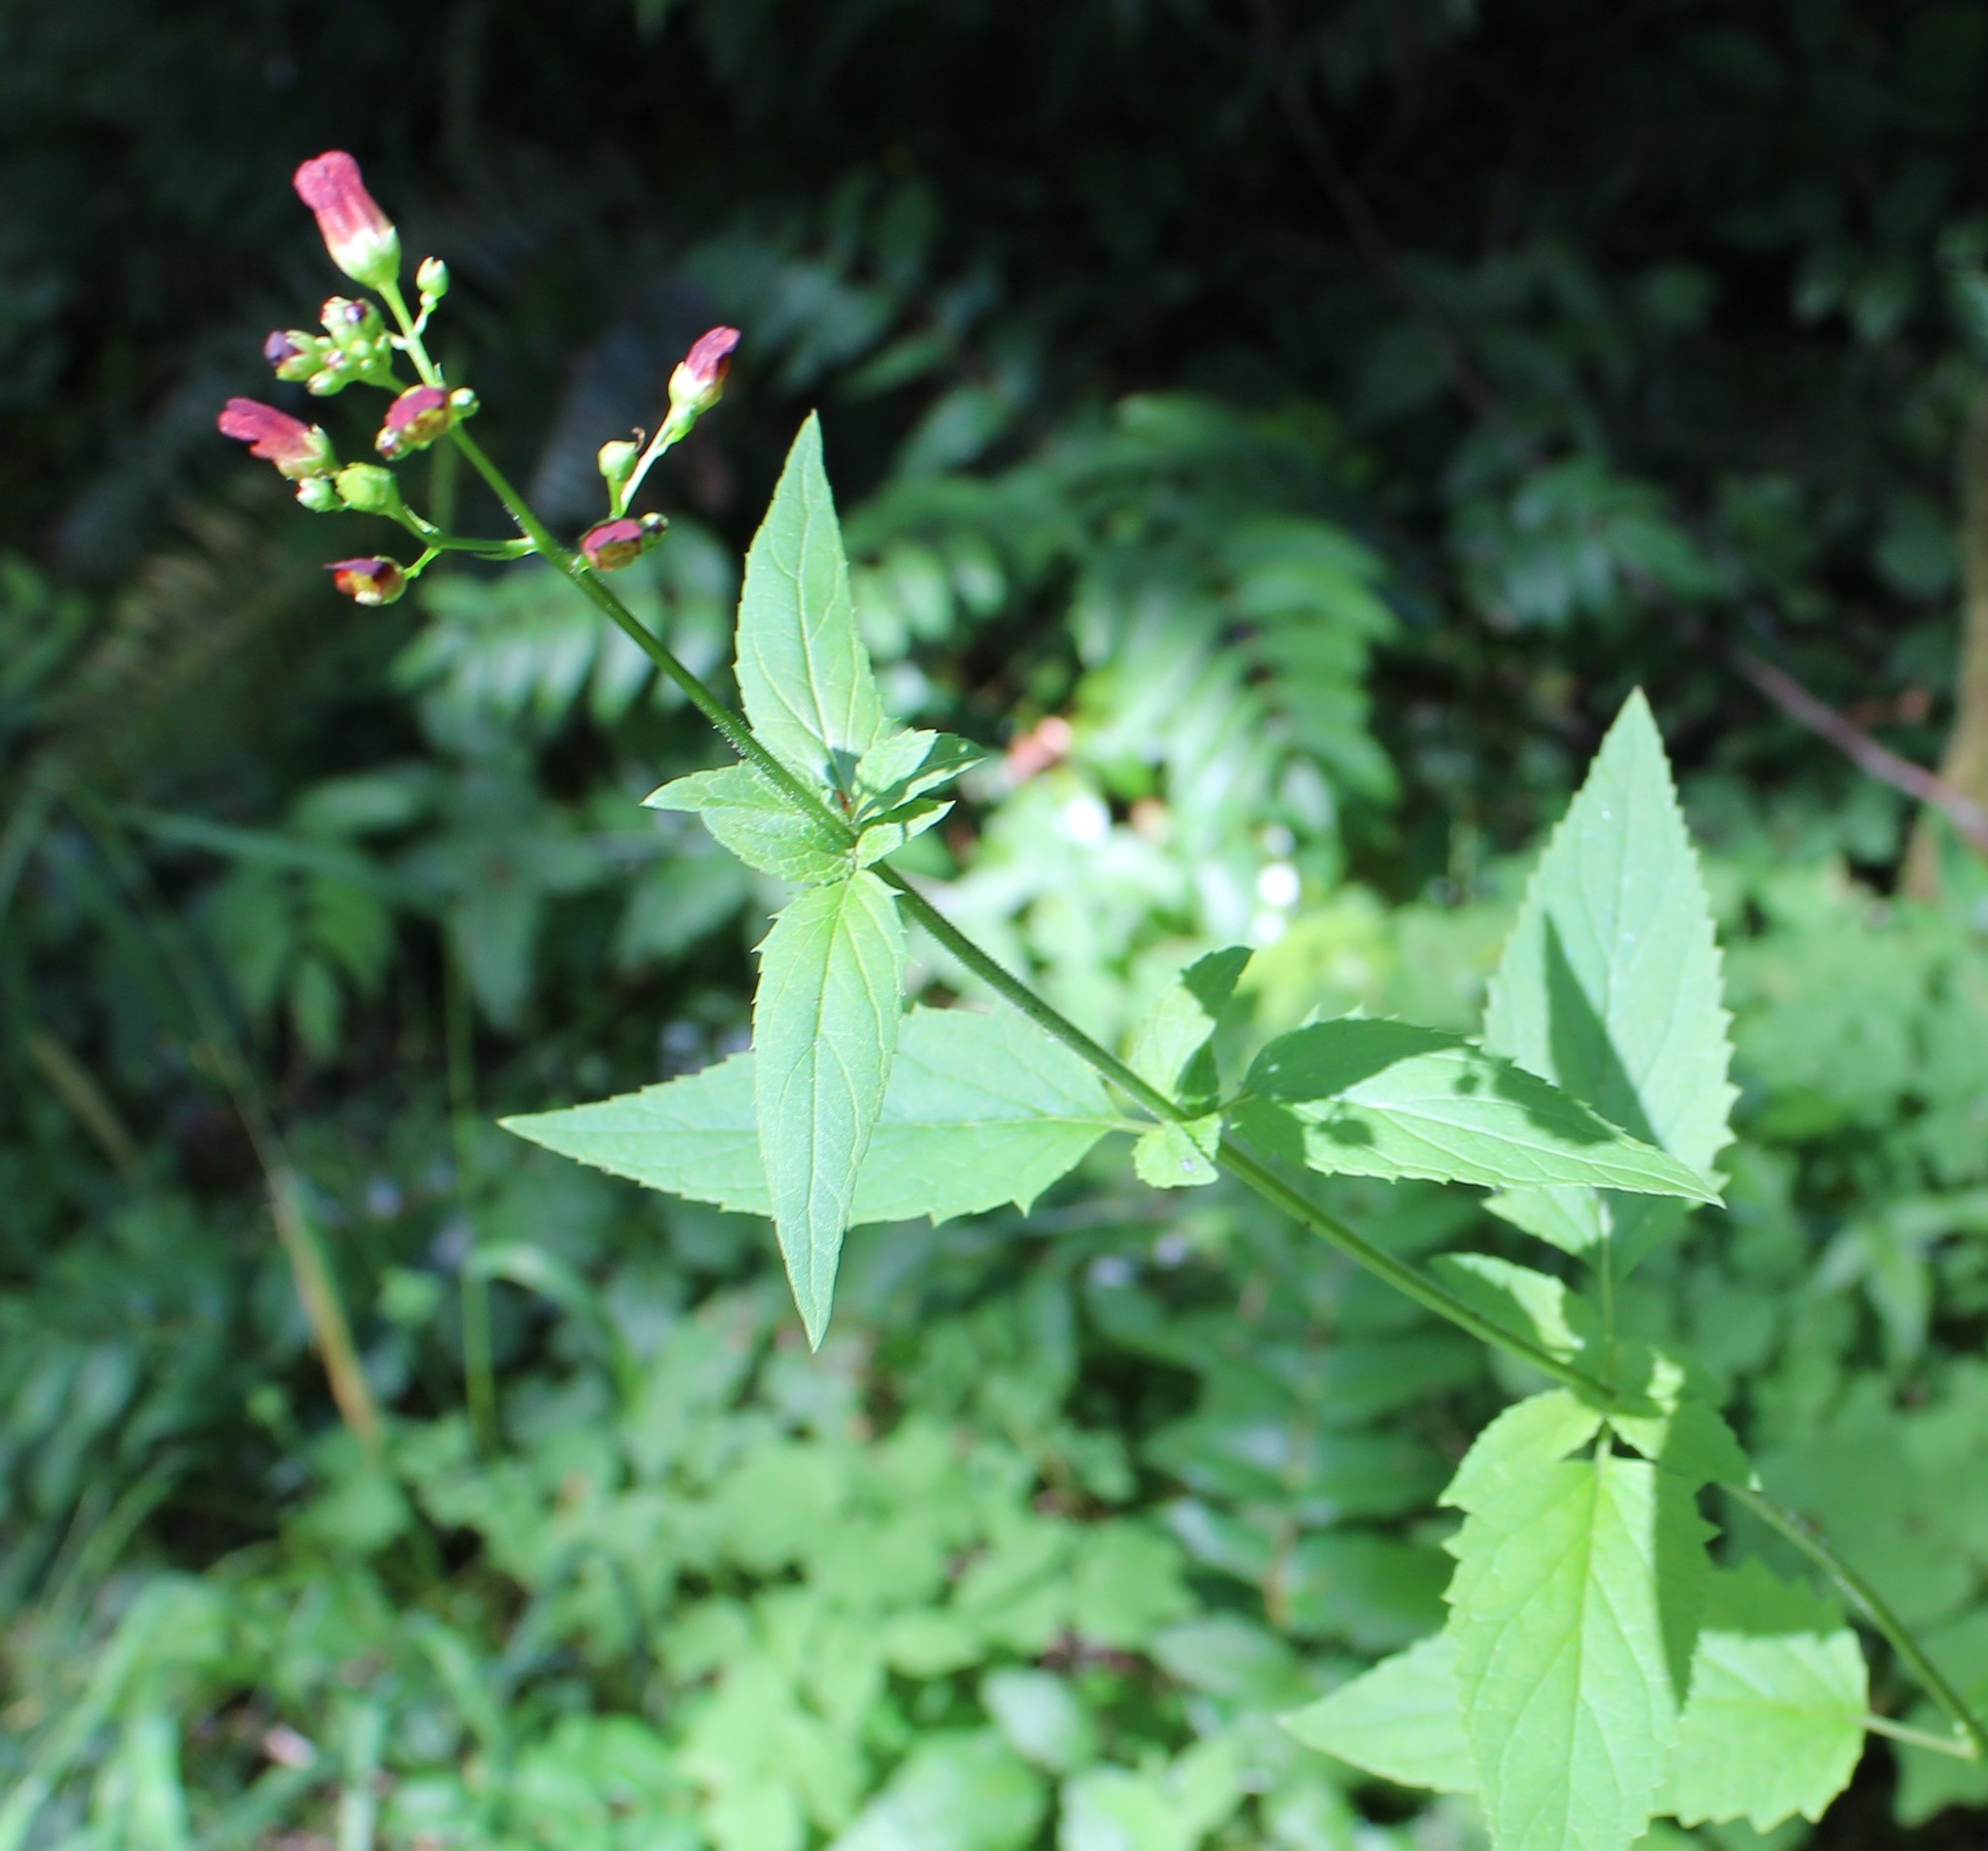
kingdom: Plantae
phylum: Tracheophyta
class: Magnoliopsida
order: Lamiales
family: Scrophulariaceae
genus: Scrophularia
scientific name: Scrophularia lanceolata
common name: American figwort
